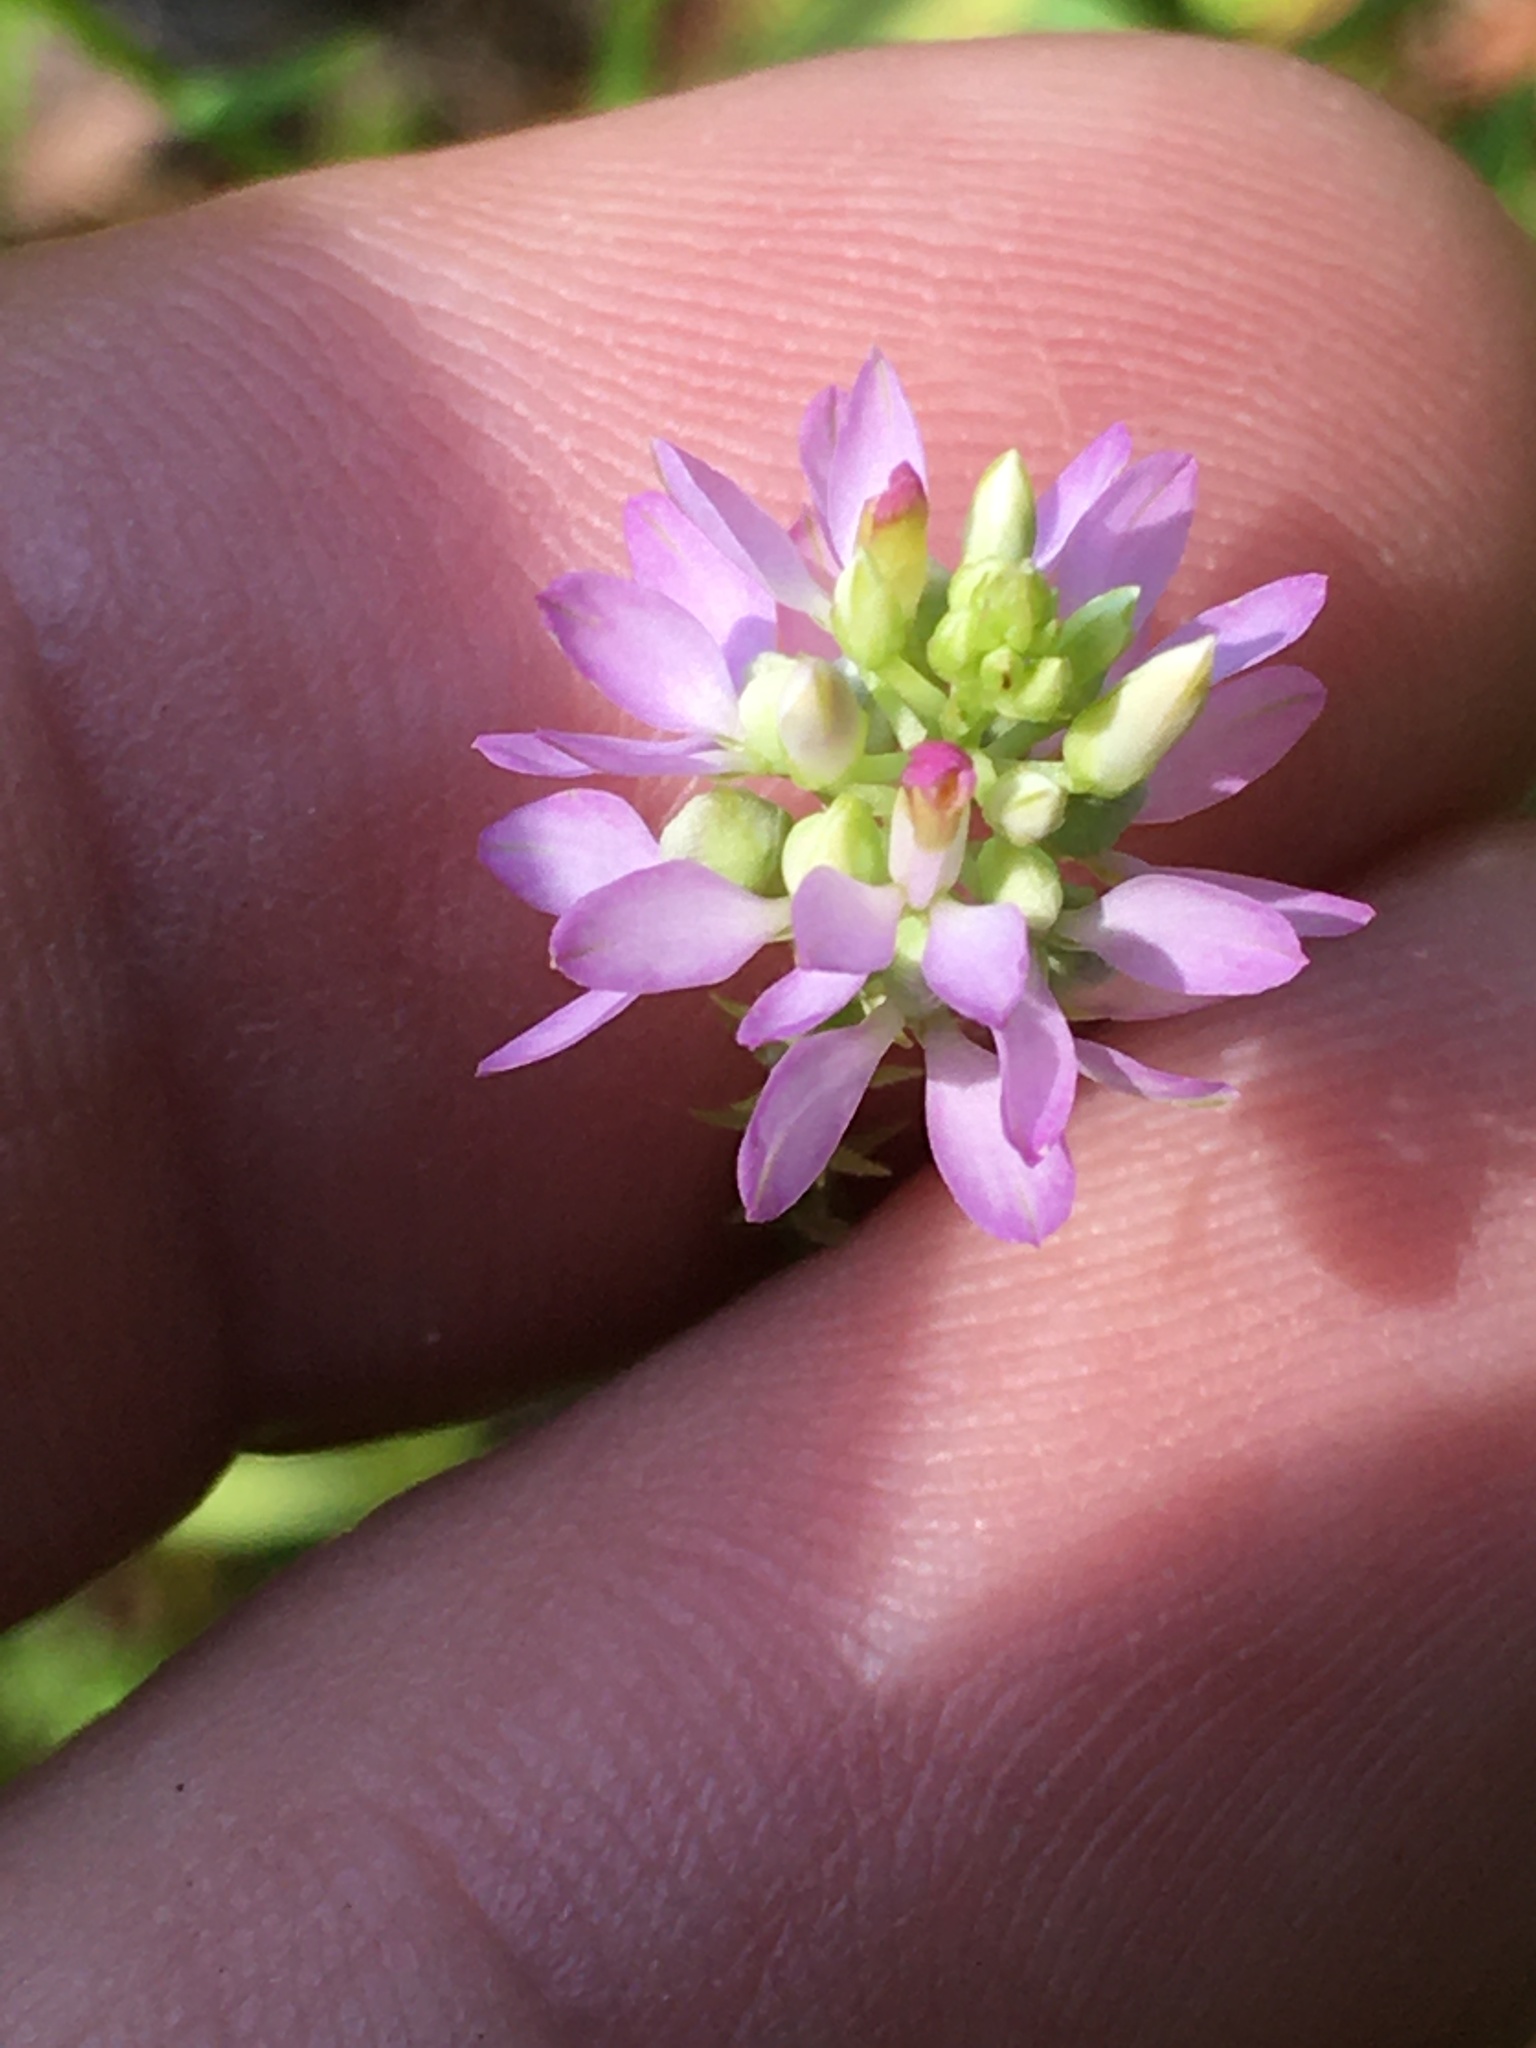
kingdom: Plantae
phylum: Tracheophyta
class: Magnoliopsida
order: Fabales
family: Polygalaceae
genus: Polygala
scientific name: Polygala curtissii
